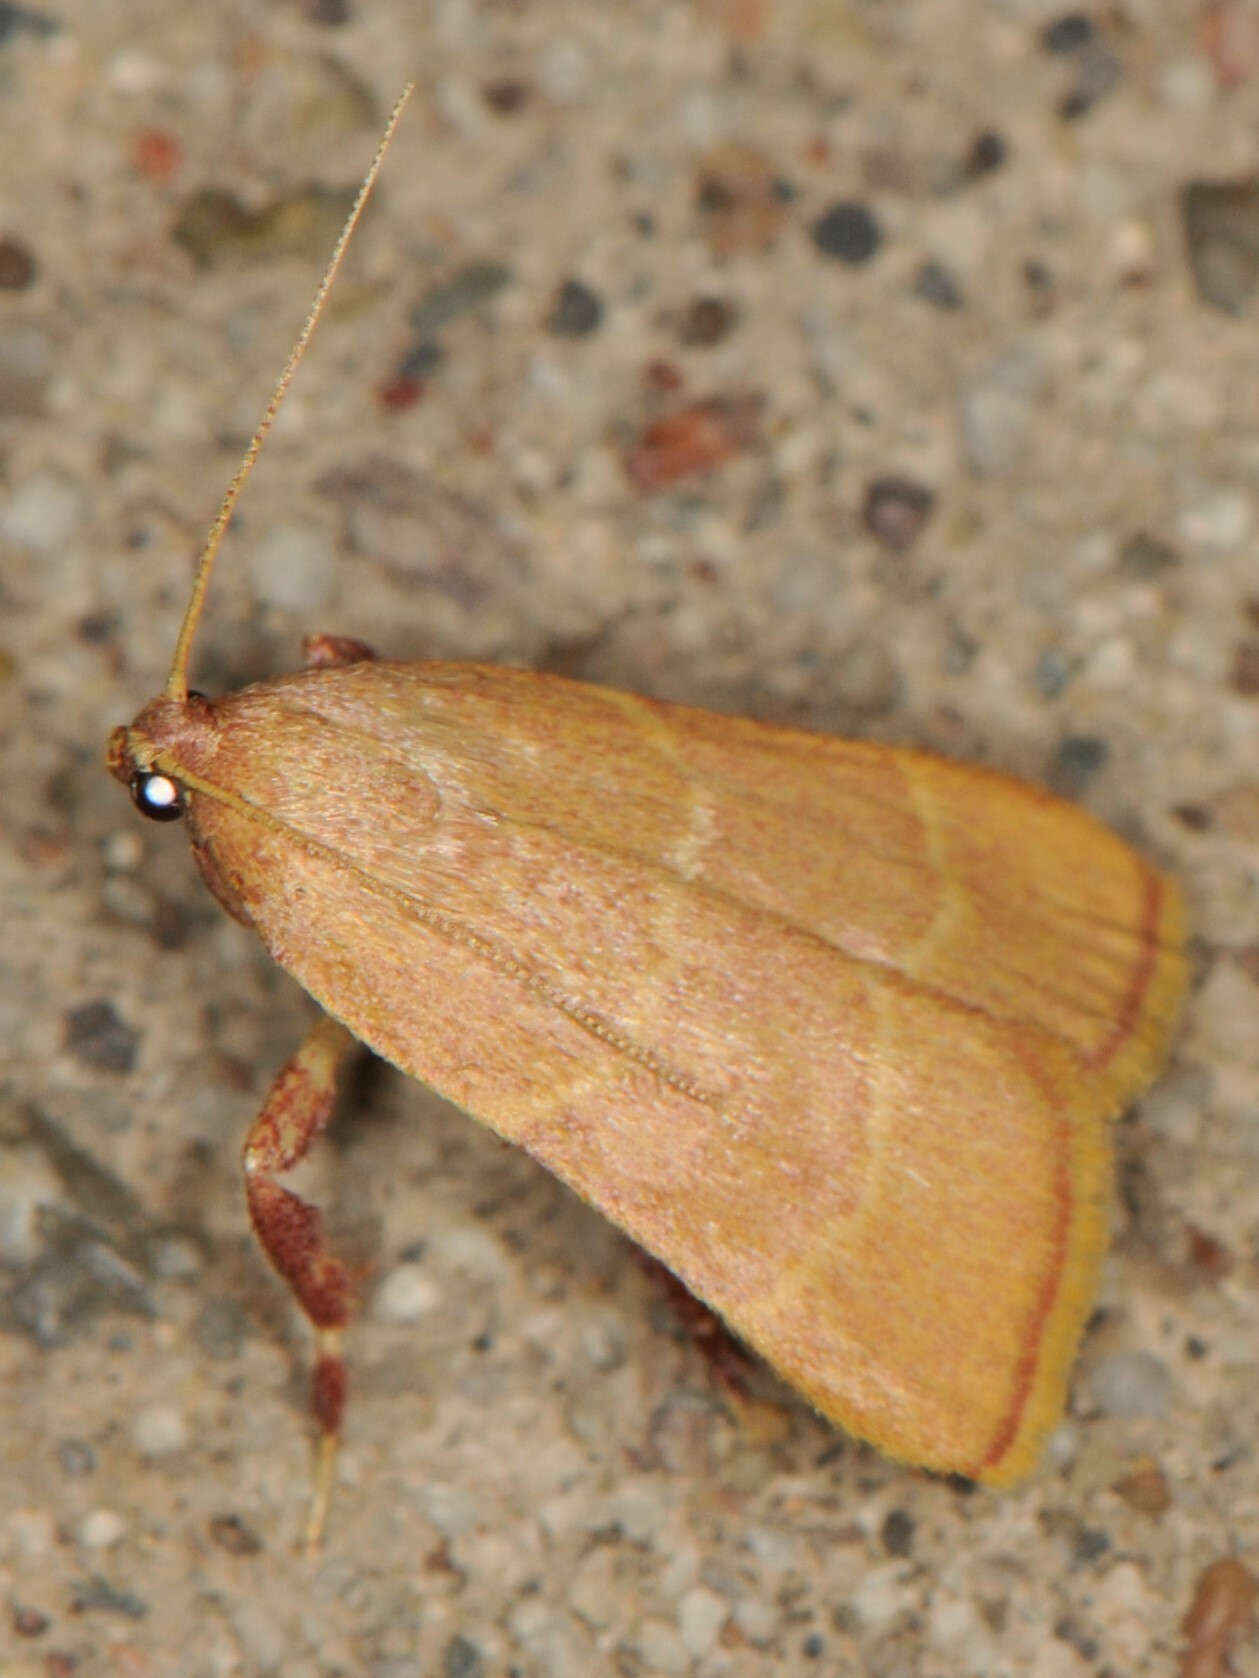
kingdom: Animalia
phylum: Arthropoda
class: Insecta
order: Lepidoptera
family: Pyralidae
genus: Parachma
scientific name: Parachma ochracealis
